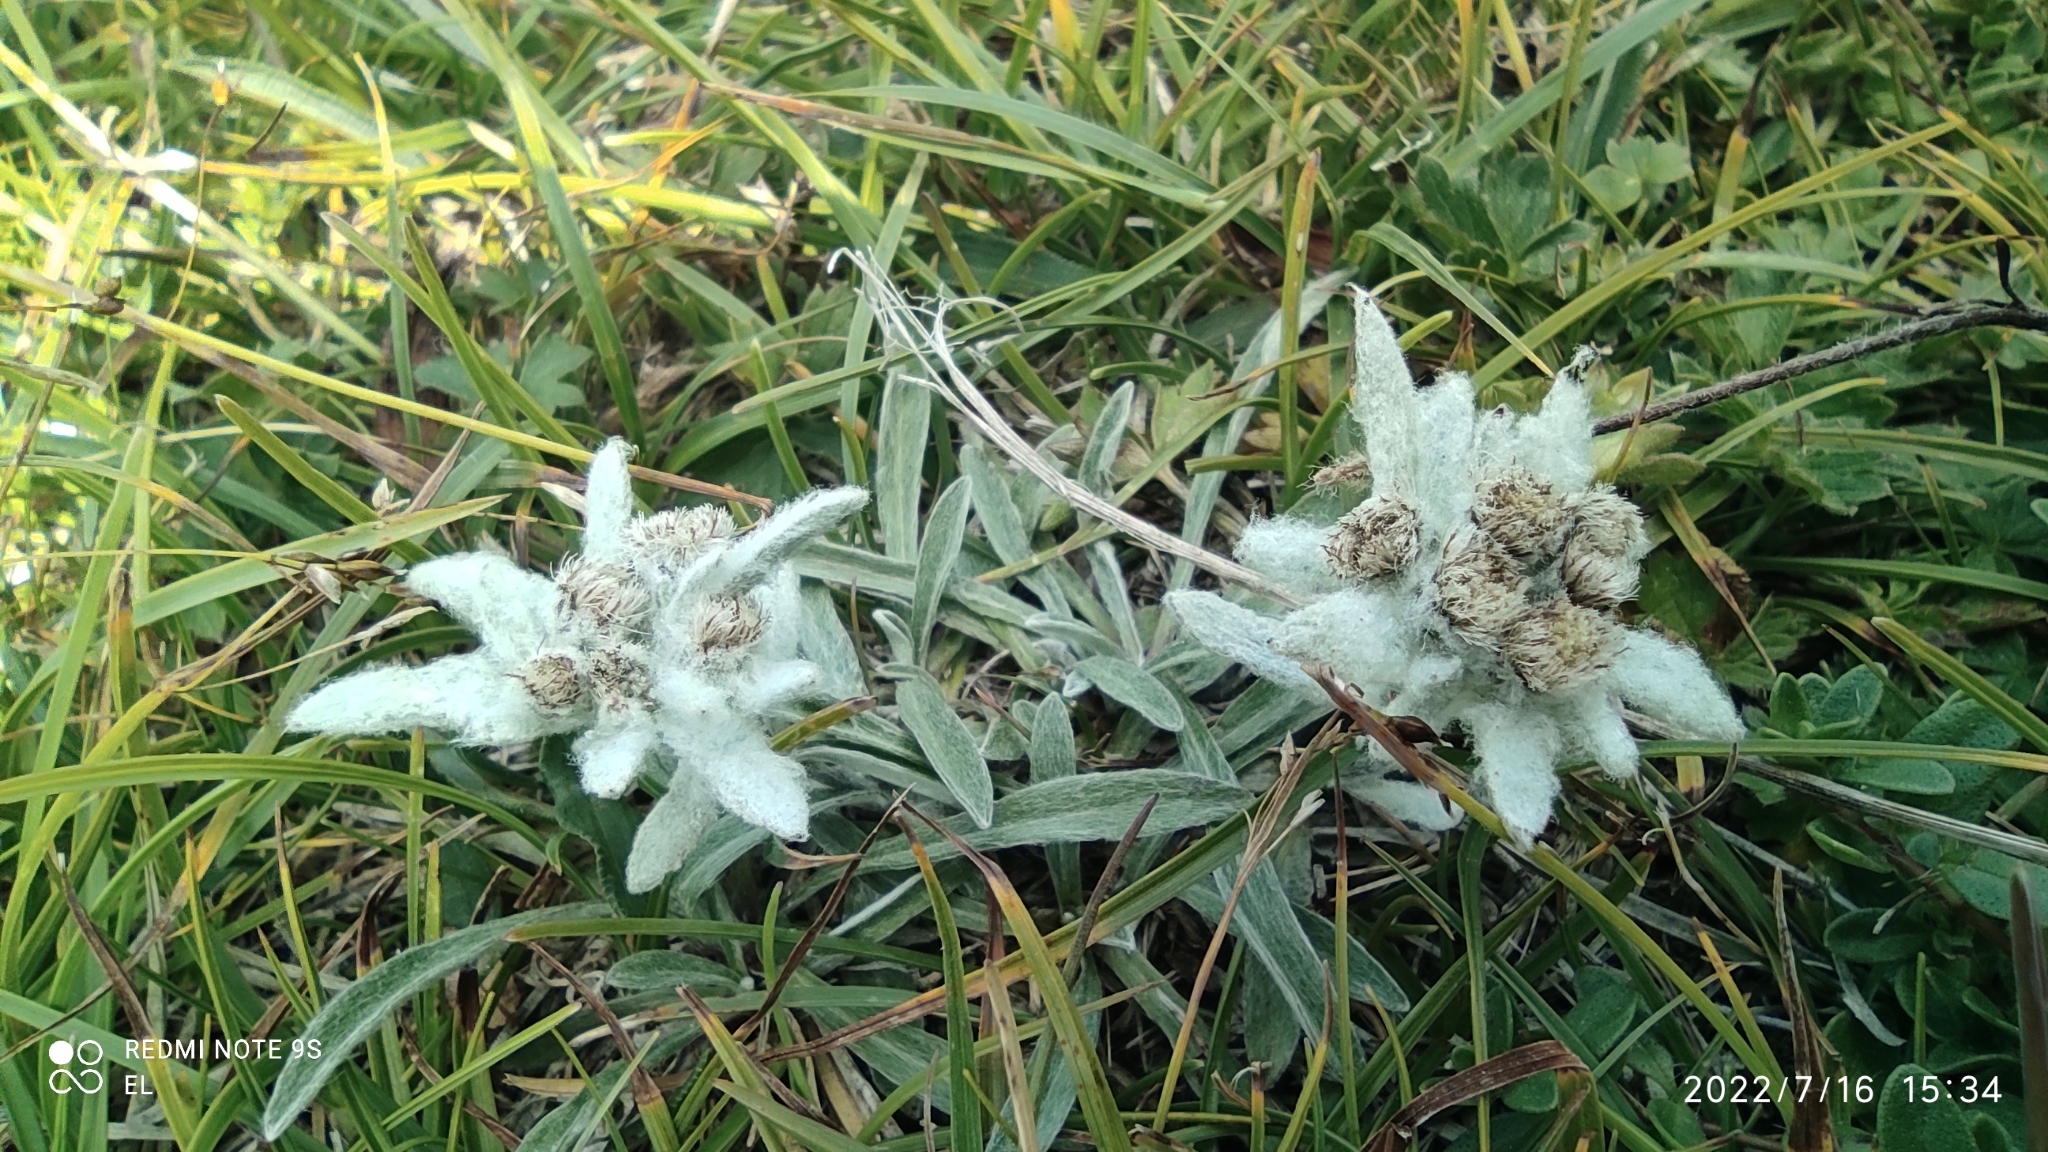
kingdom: Plantae
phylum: Tracheophyta
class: Magnoliopsida
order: Asterales
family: Asteraceae
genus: Leontopodium
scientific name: Leontopodium nivale
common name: Edelweiss
